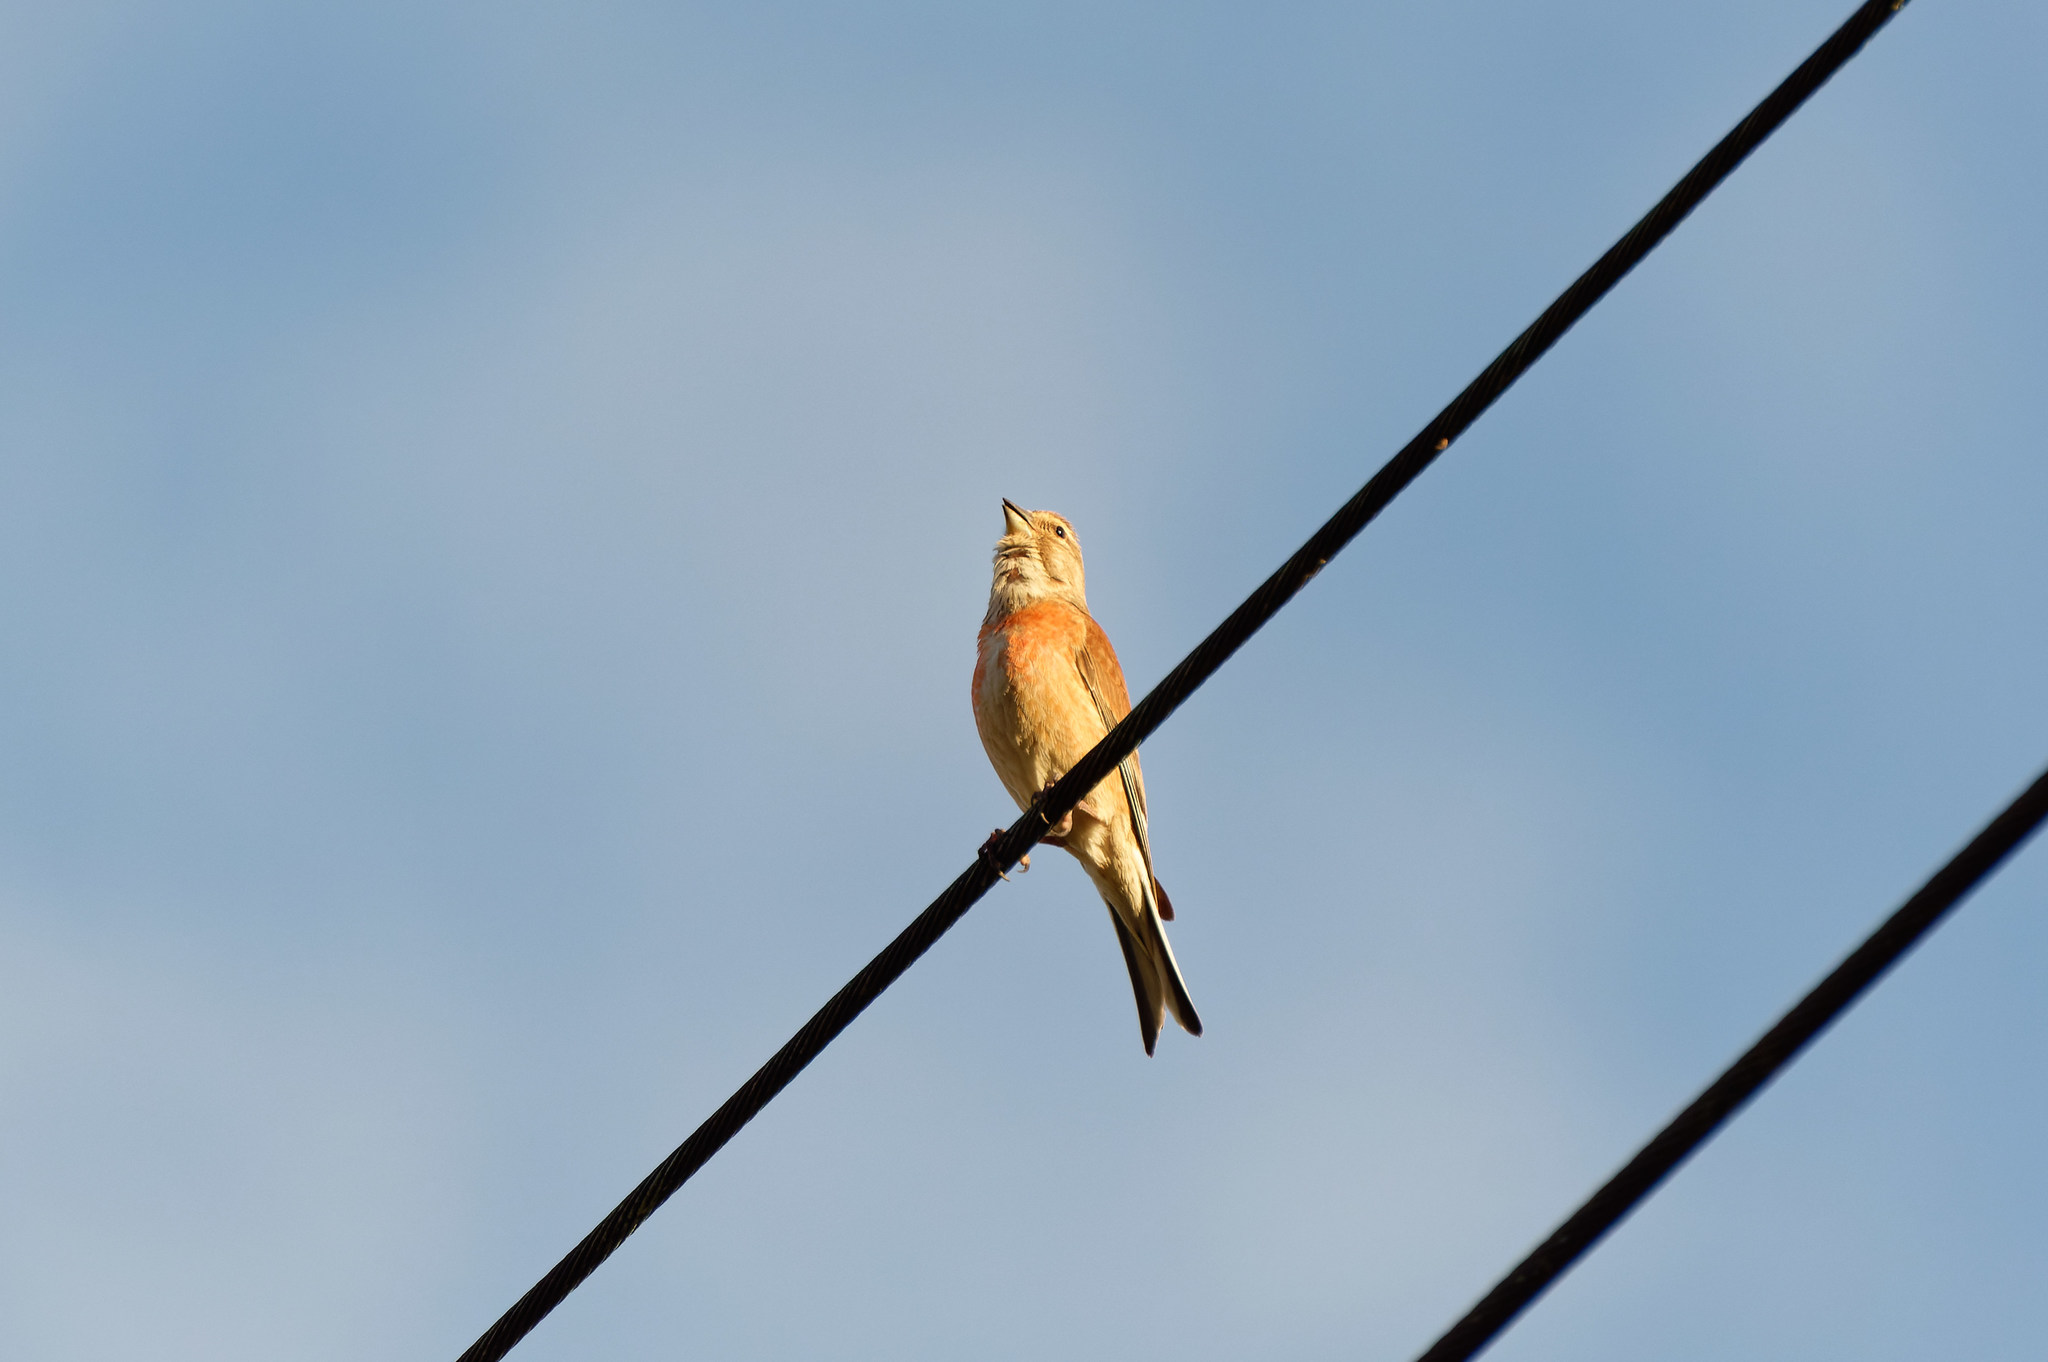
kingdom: Animalia
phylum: Chordata
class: Aves
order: Passeriformes
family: Fringillidae
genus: Linaria
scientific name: Linaria cannabina
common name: Common linnet
